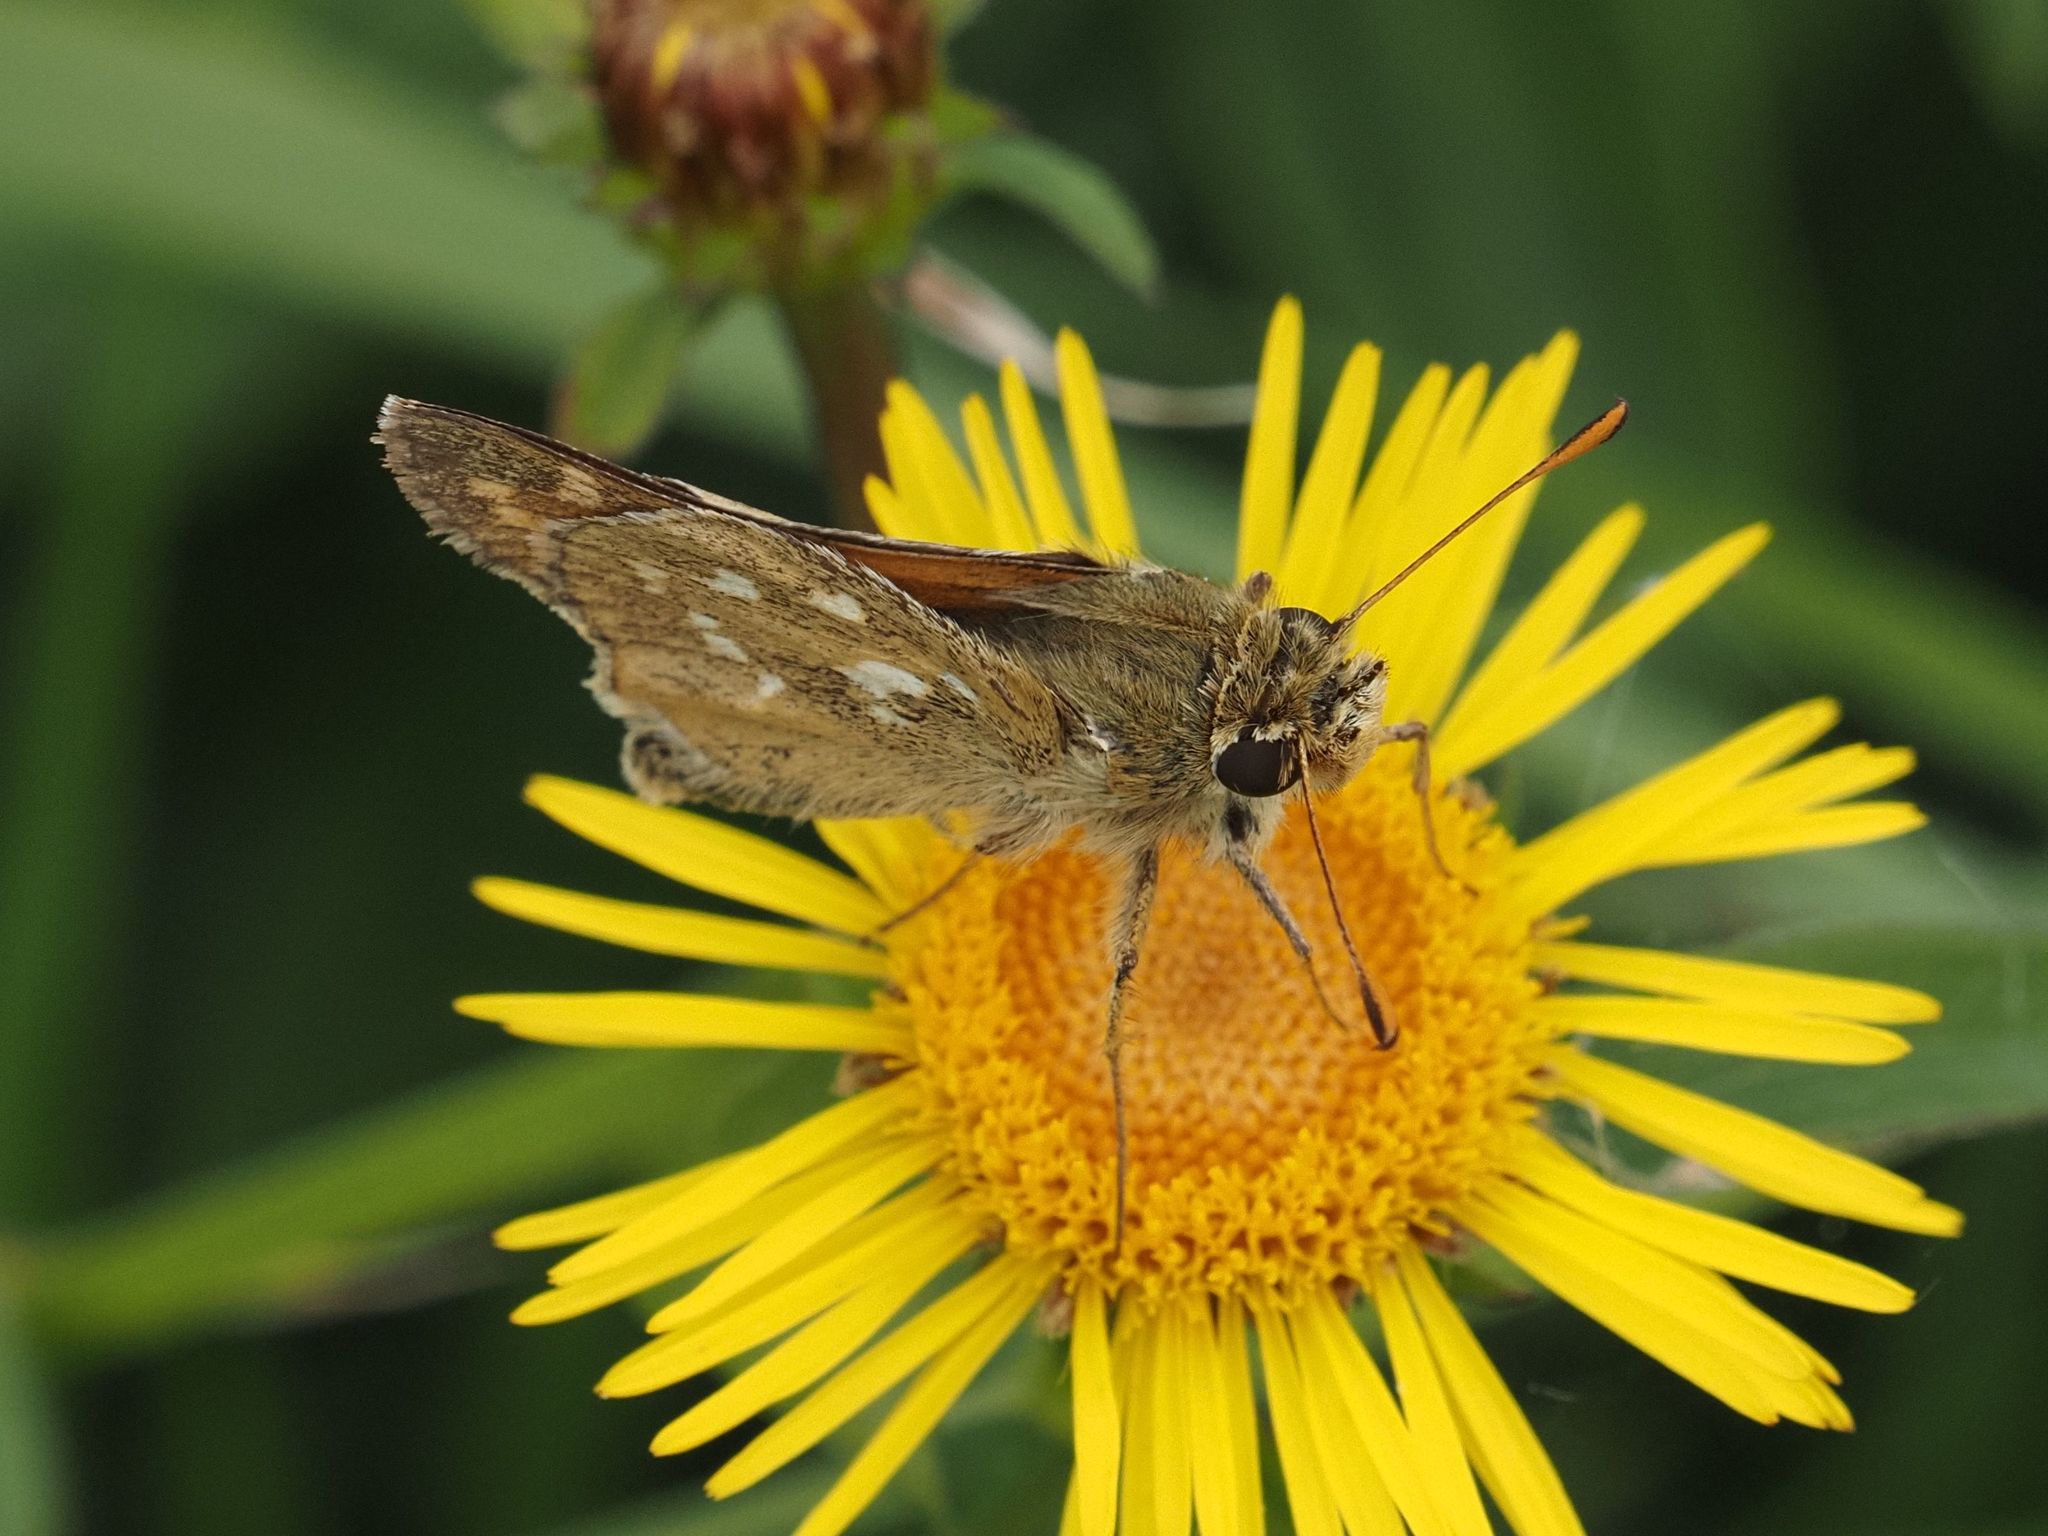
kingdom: Animalia
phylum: Arthropoda
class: Insecta
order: Lepidoptera
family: Hesperiidae
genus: Hesperia
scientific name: Hesperia comma
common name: Common branded skipper
